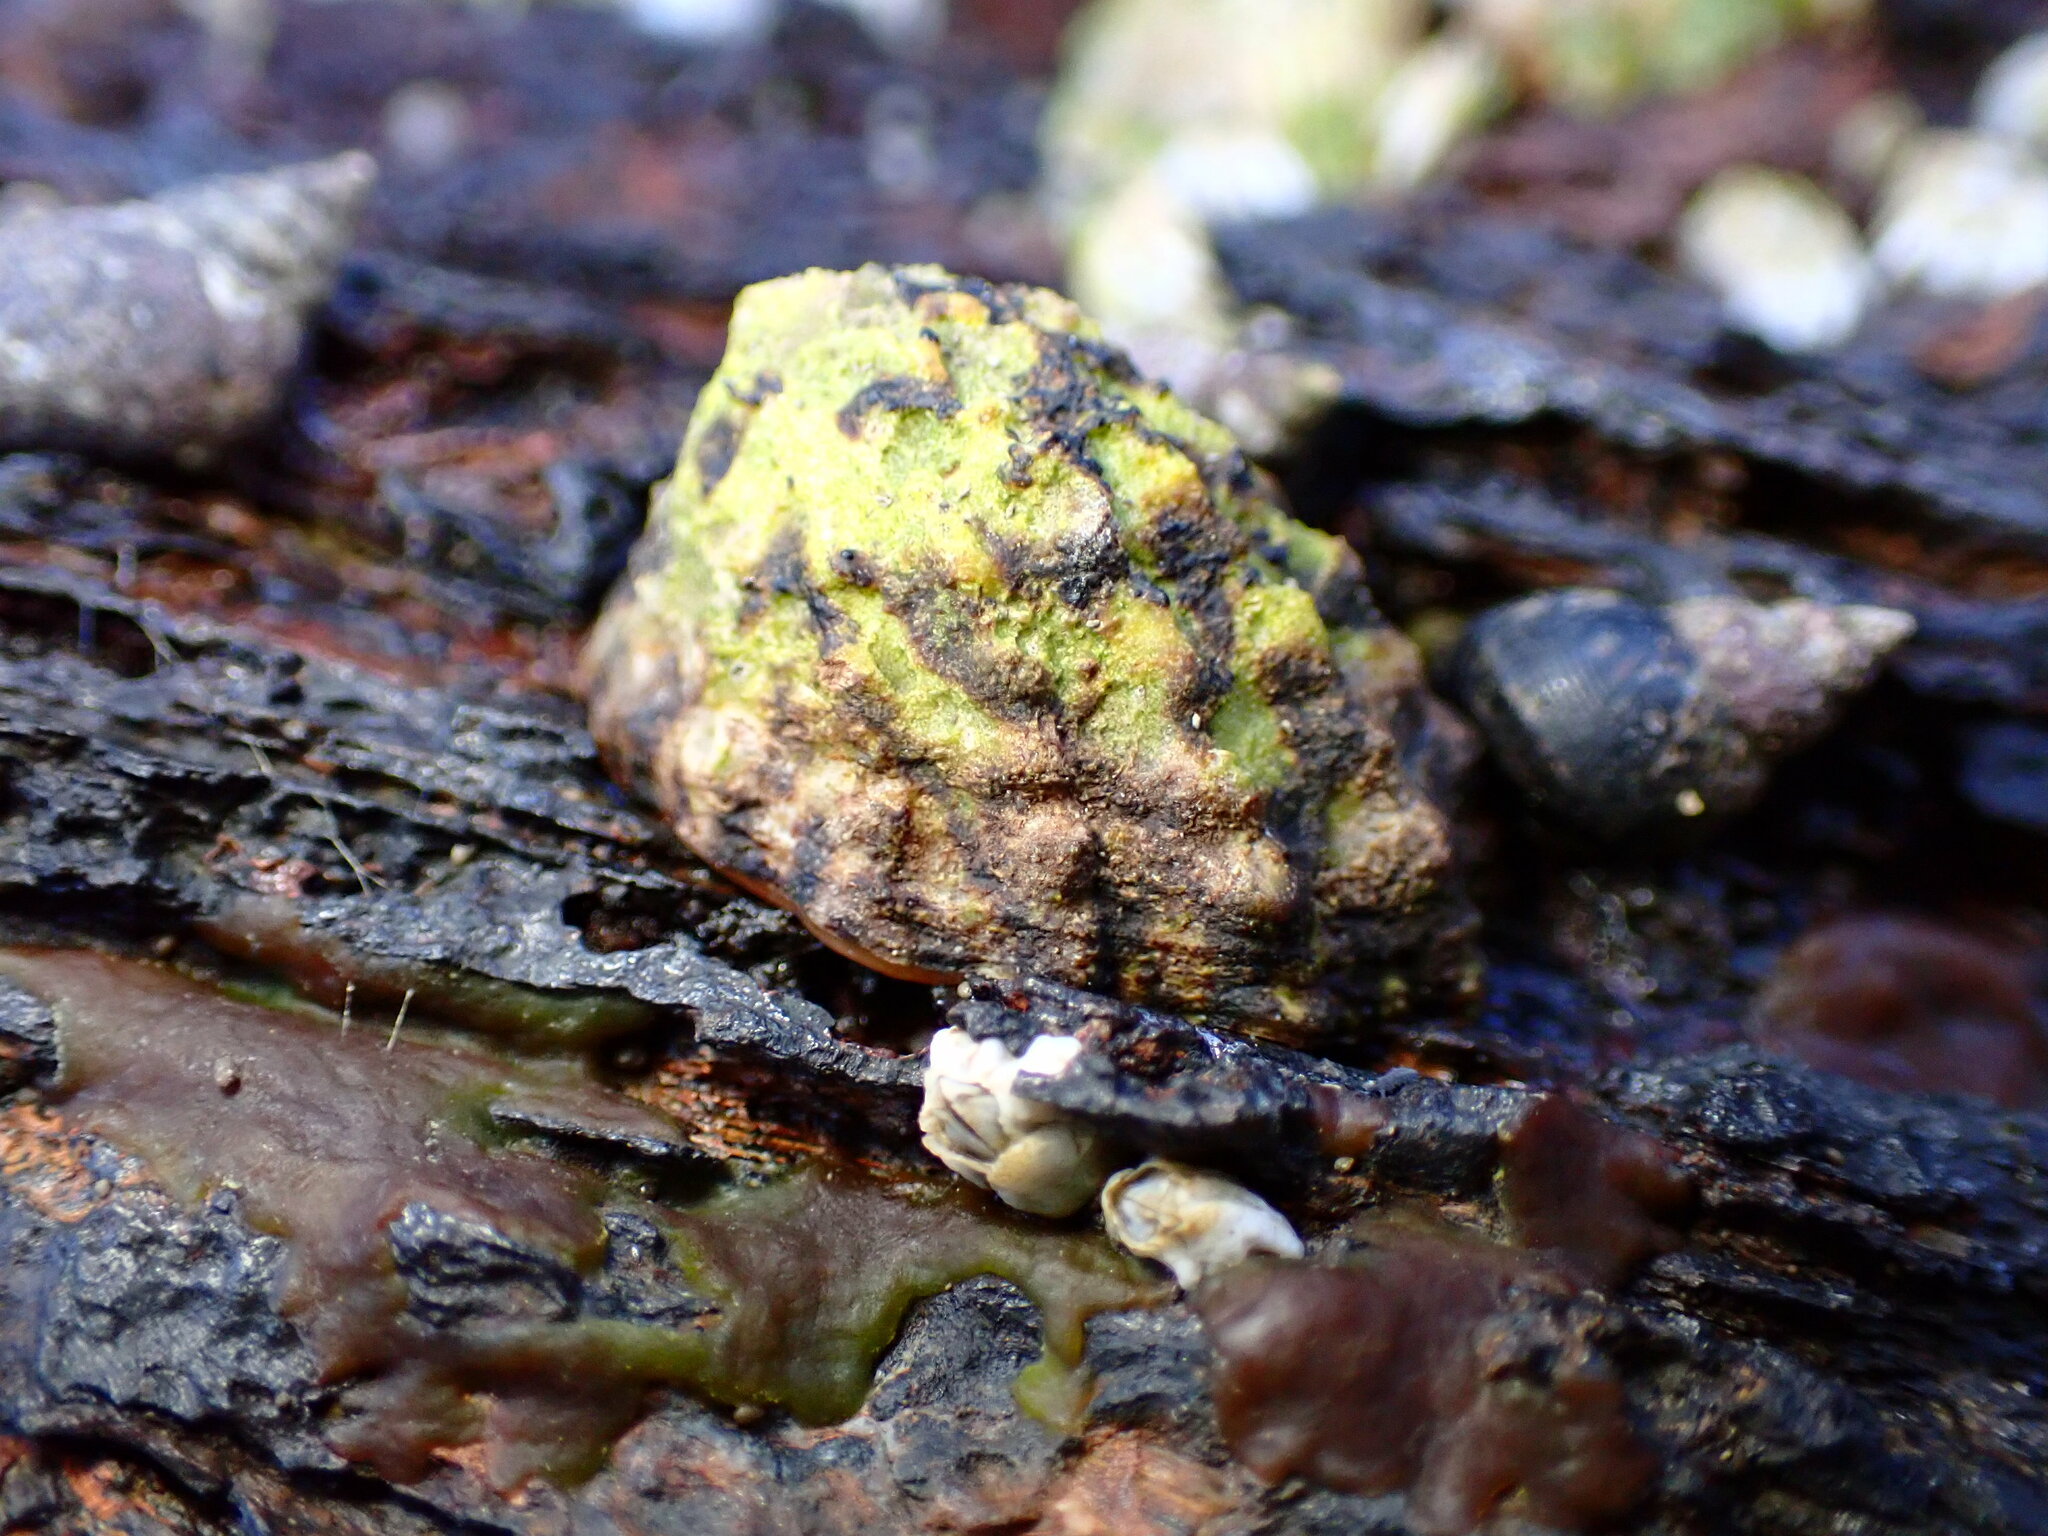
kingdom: Animalia
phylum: Mollusca
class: Gastropoda
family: Lottiidae
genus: Lottia
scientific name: Lottia digitalis
